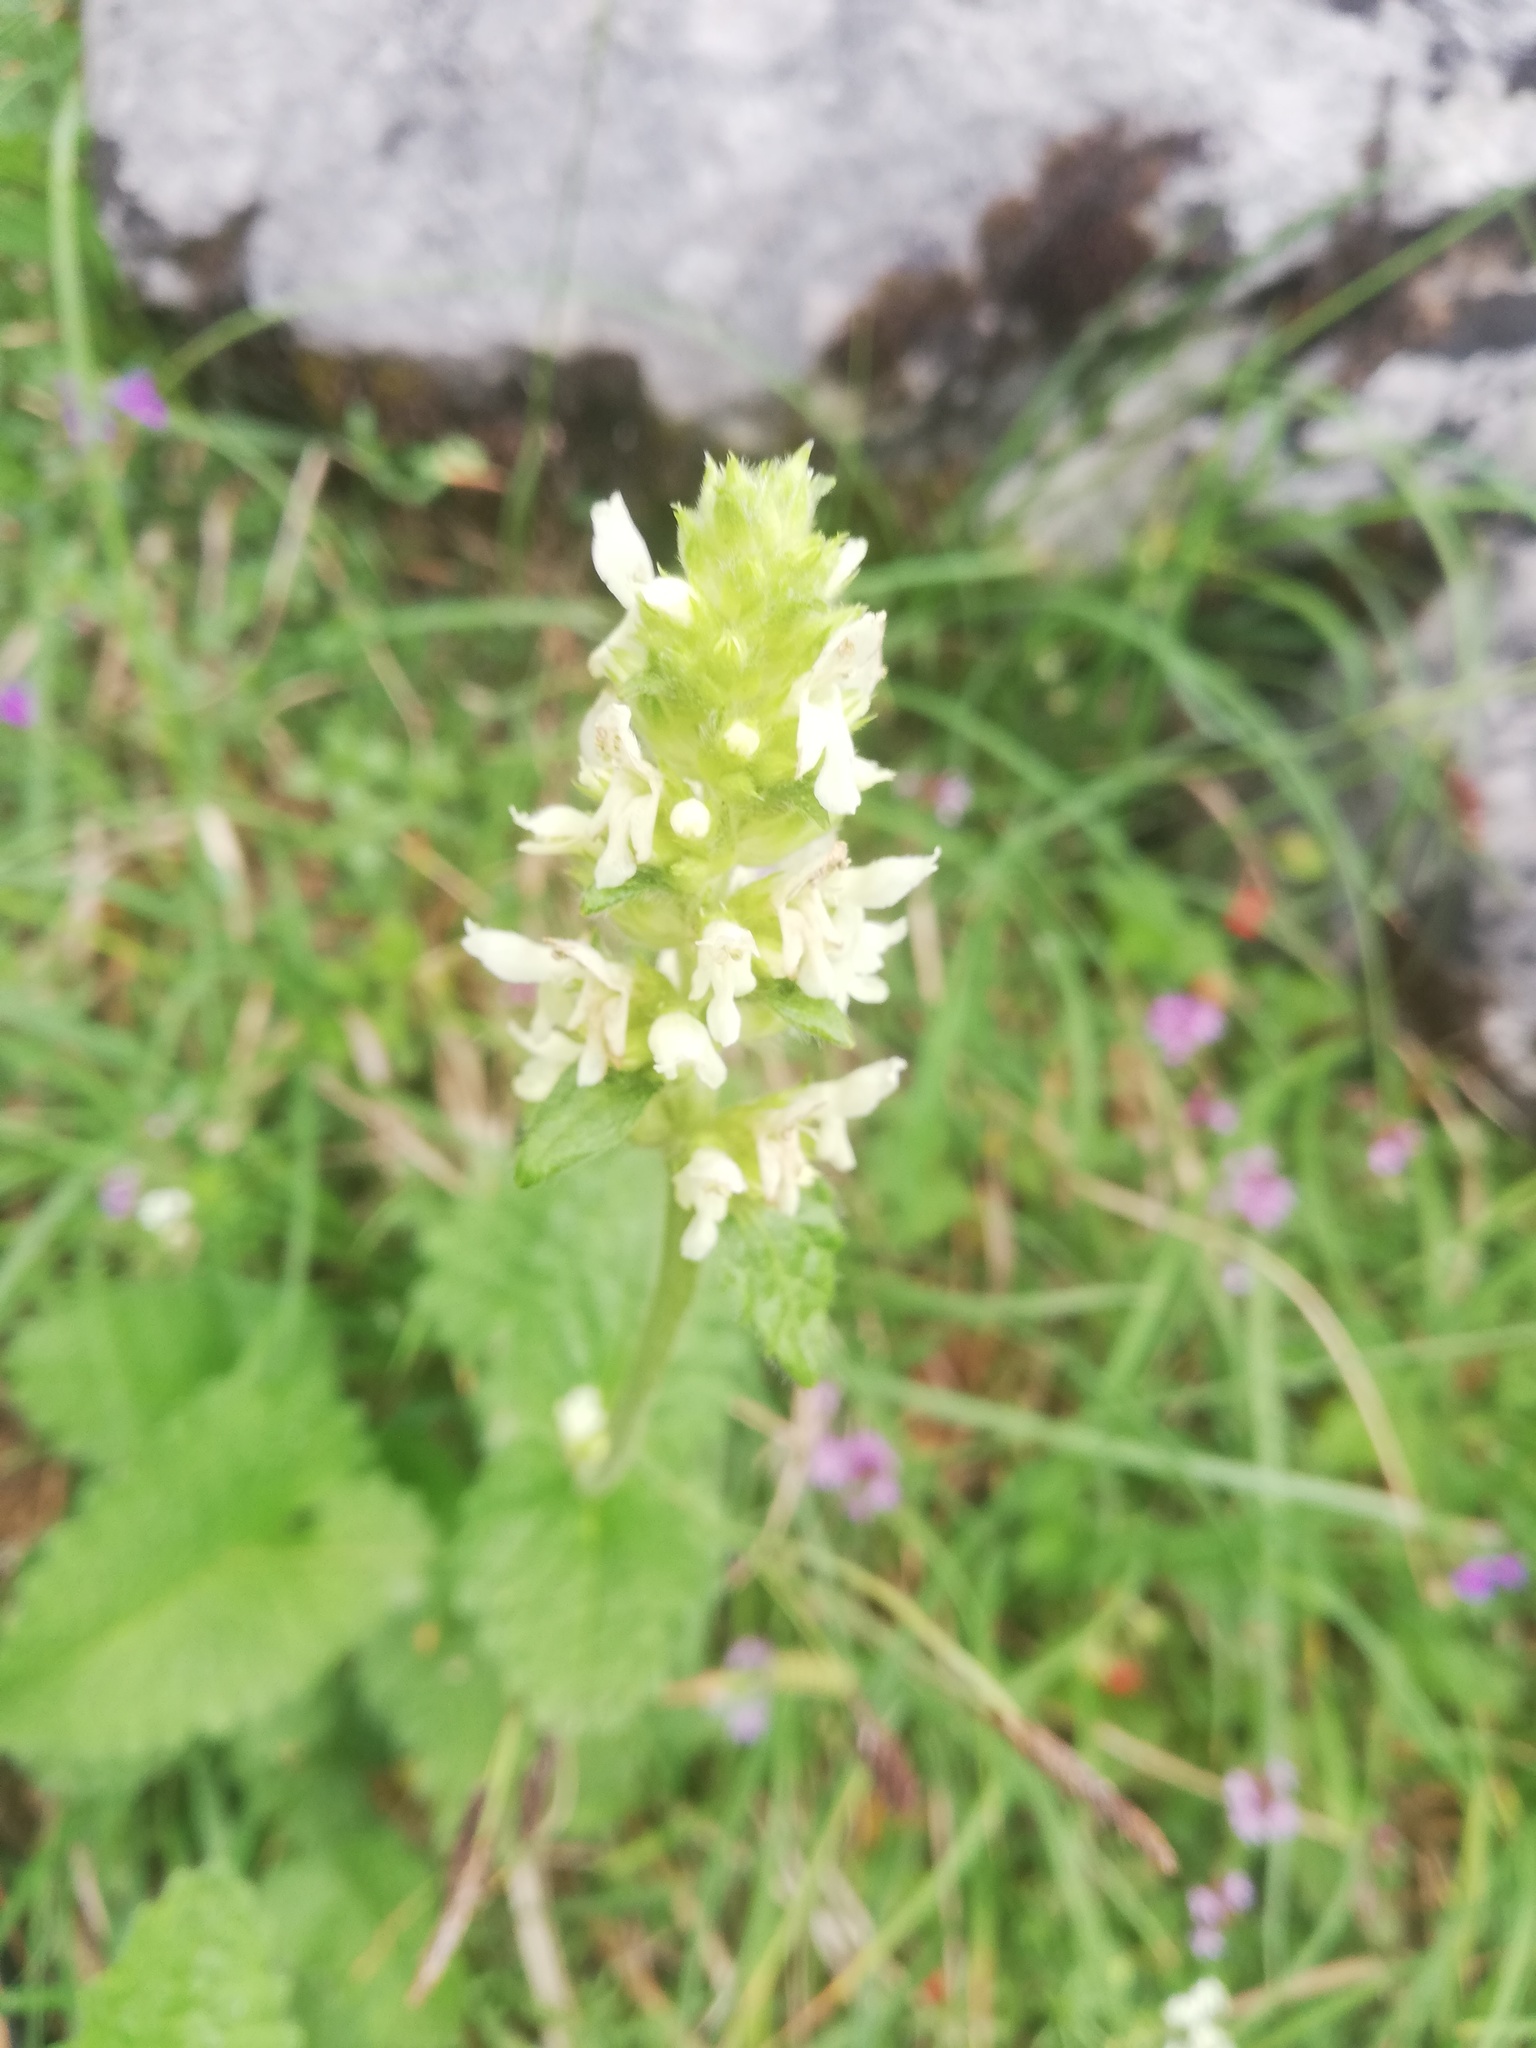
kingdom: Plantae
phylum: Tracheophyta
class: Magnoliopsida
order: Lamiales
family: Lamiaceae
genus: Betonica
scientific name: Betonica alopecuros
